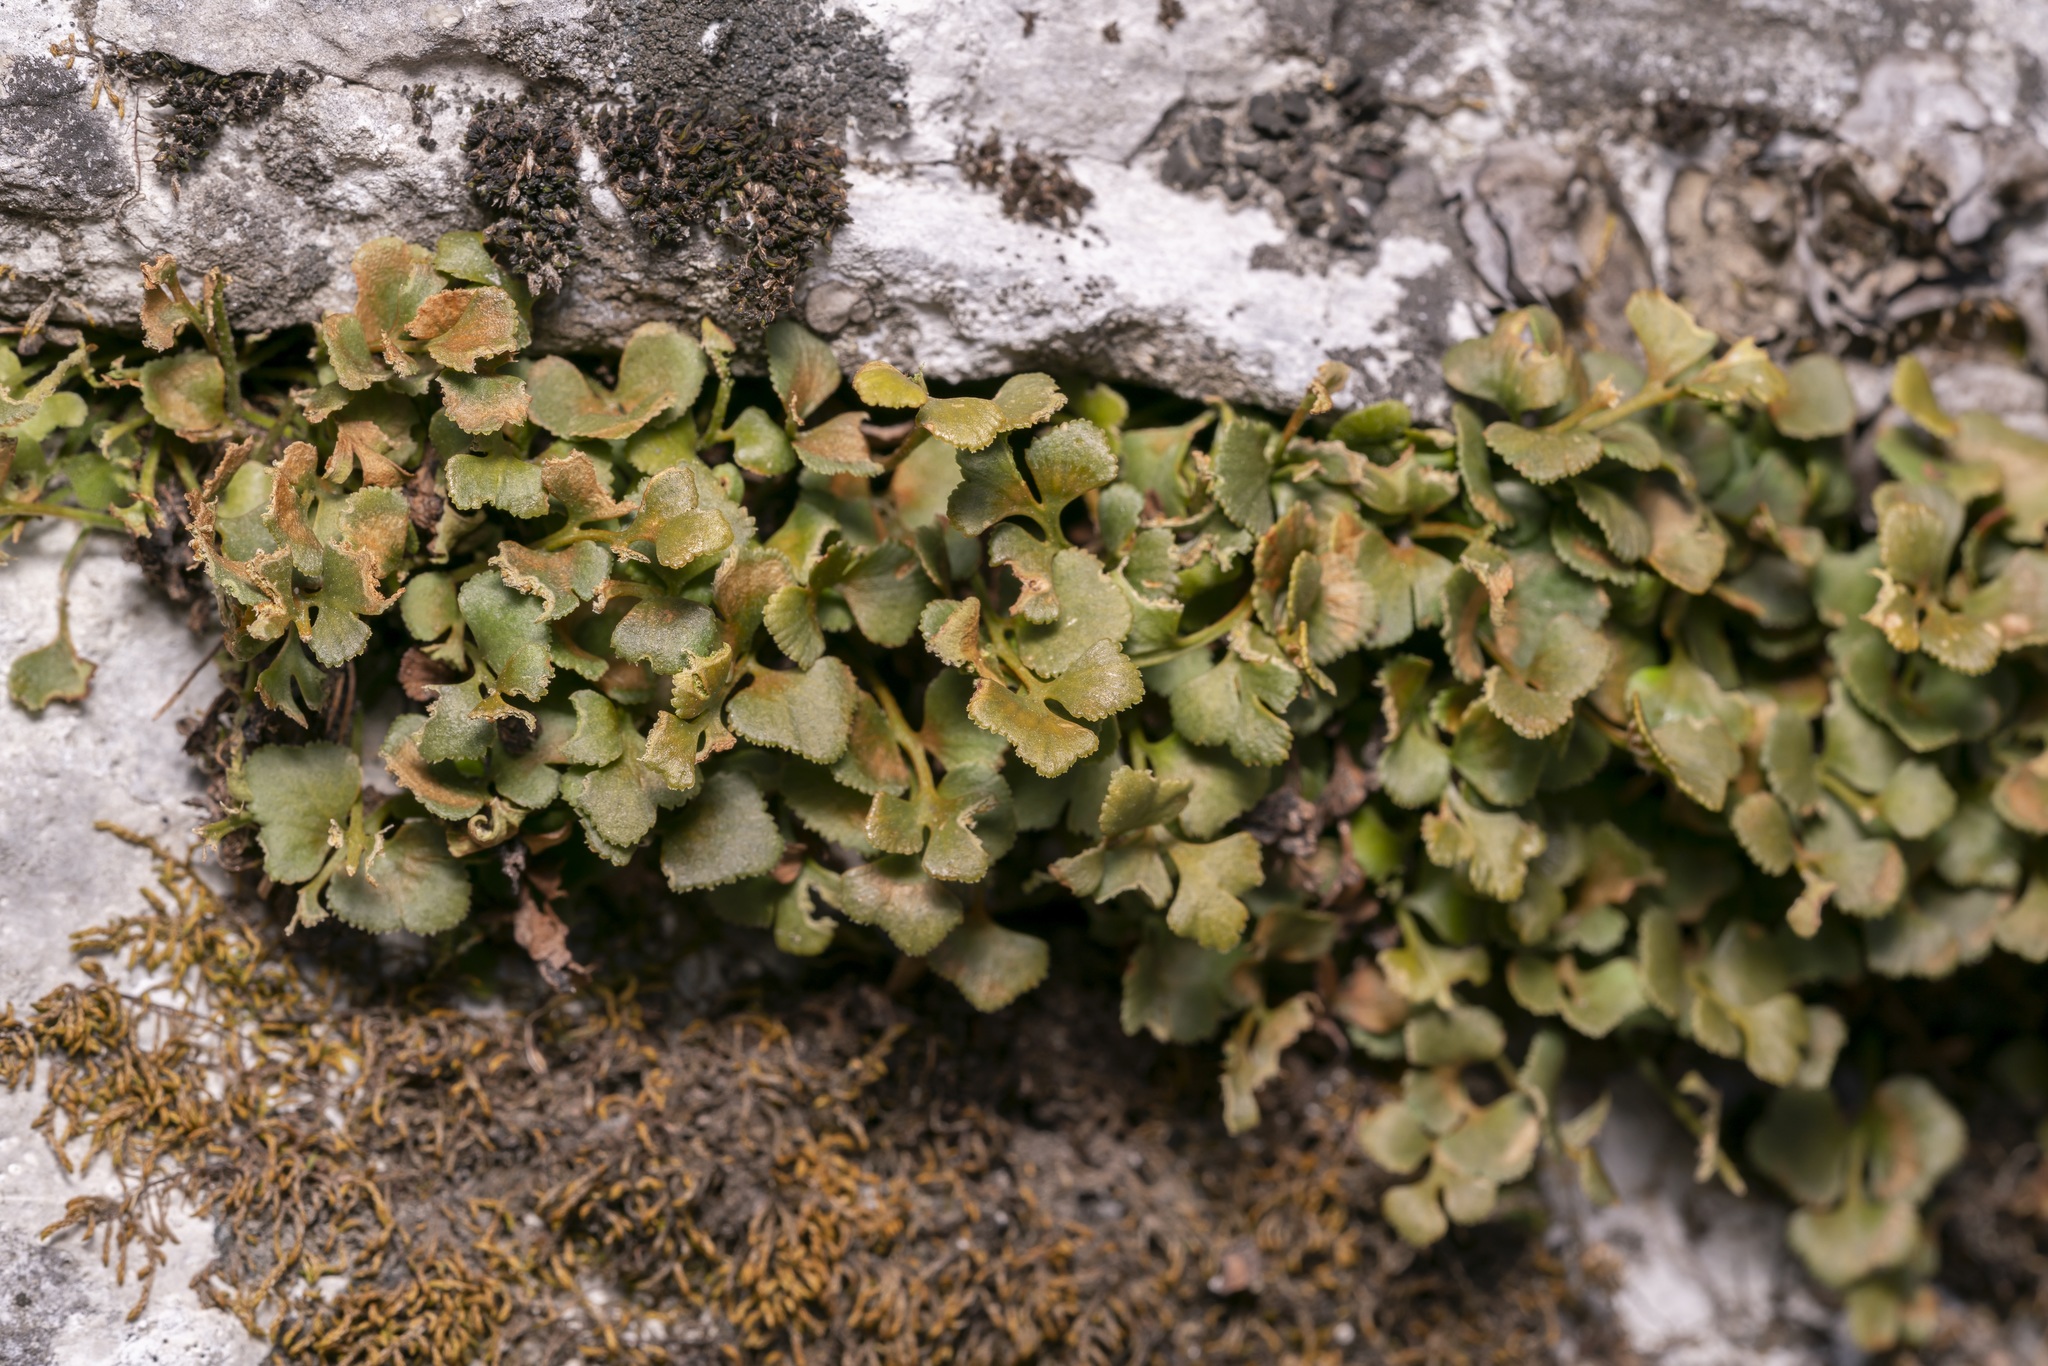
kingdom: Plantae
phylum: Tracheophyta
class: Polypodiopsida
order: Polypodiales
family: Aspleniaceae
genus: Asplenium
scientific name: Asplenium ruta-muraria
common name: Wall-rue
